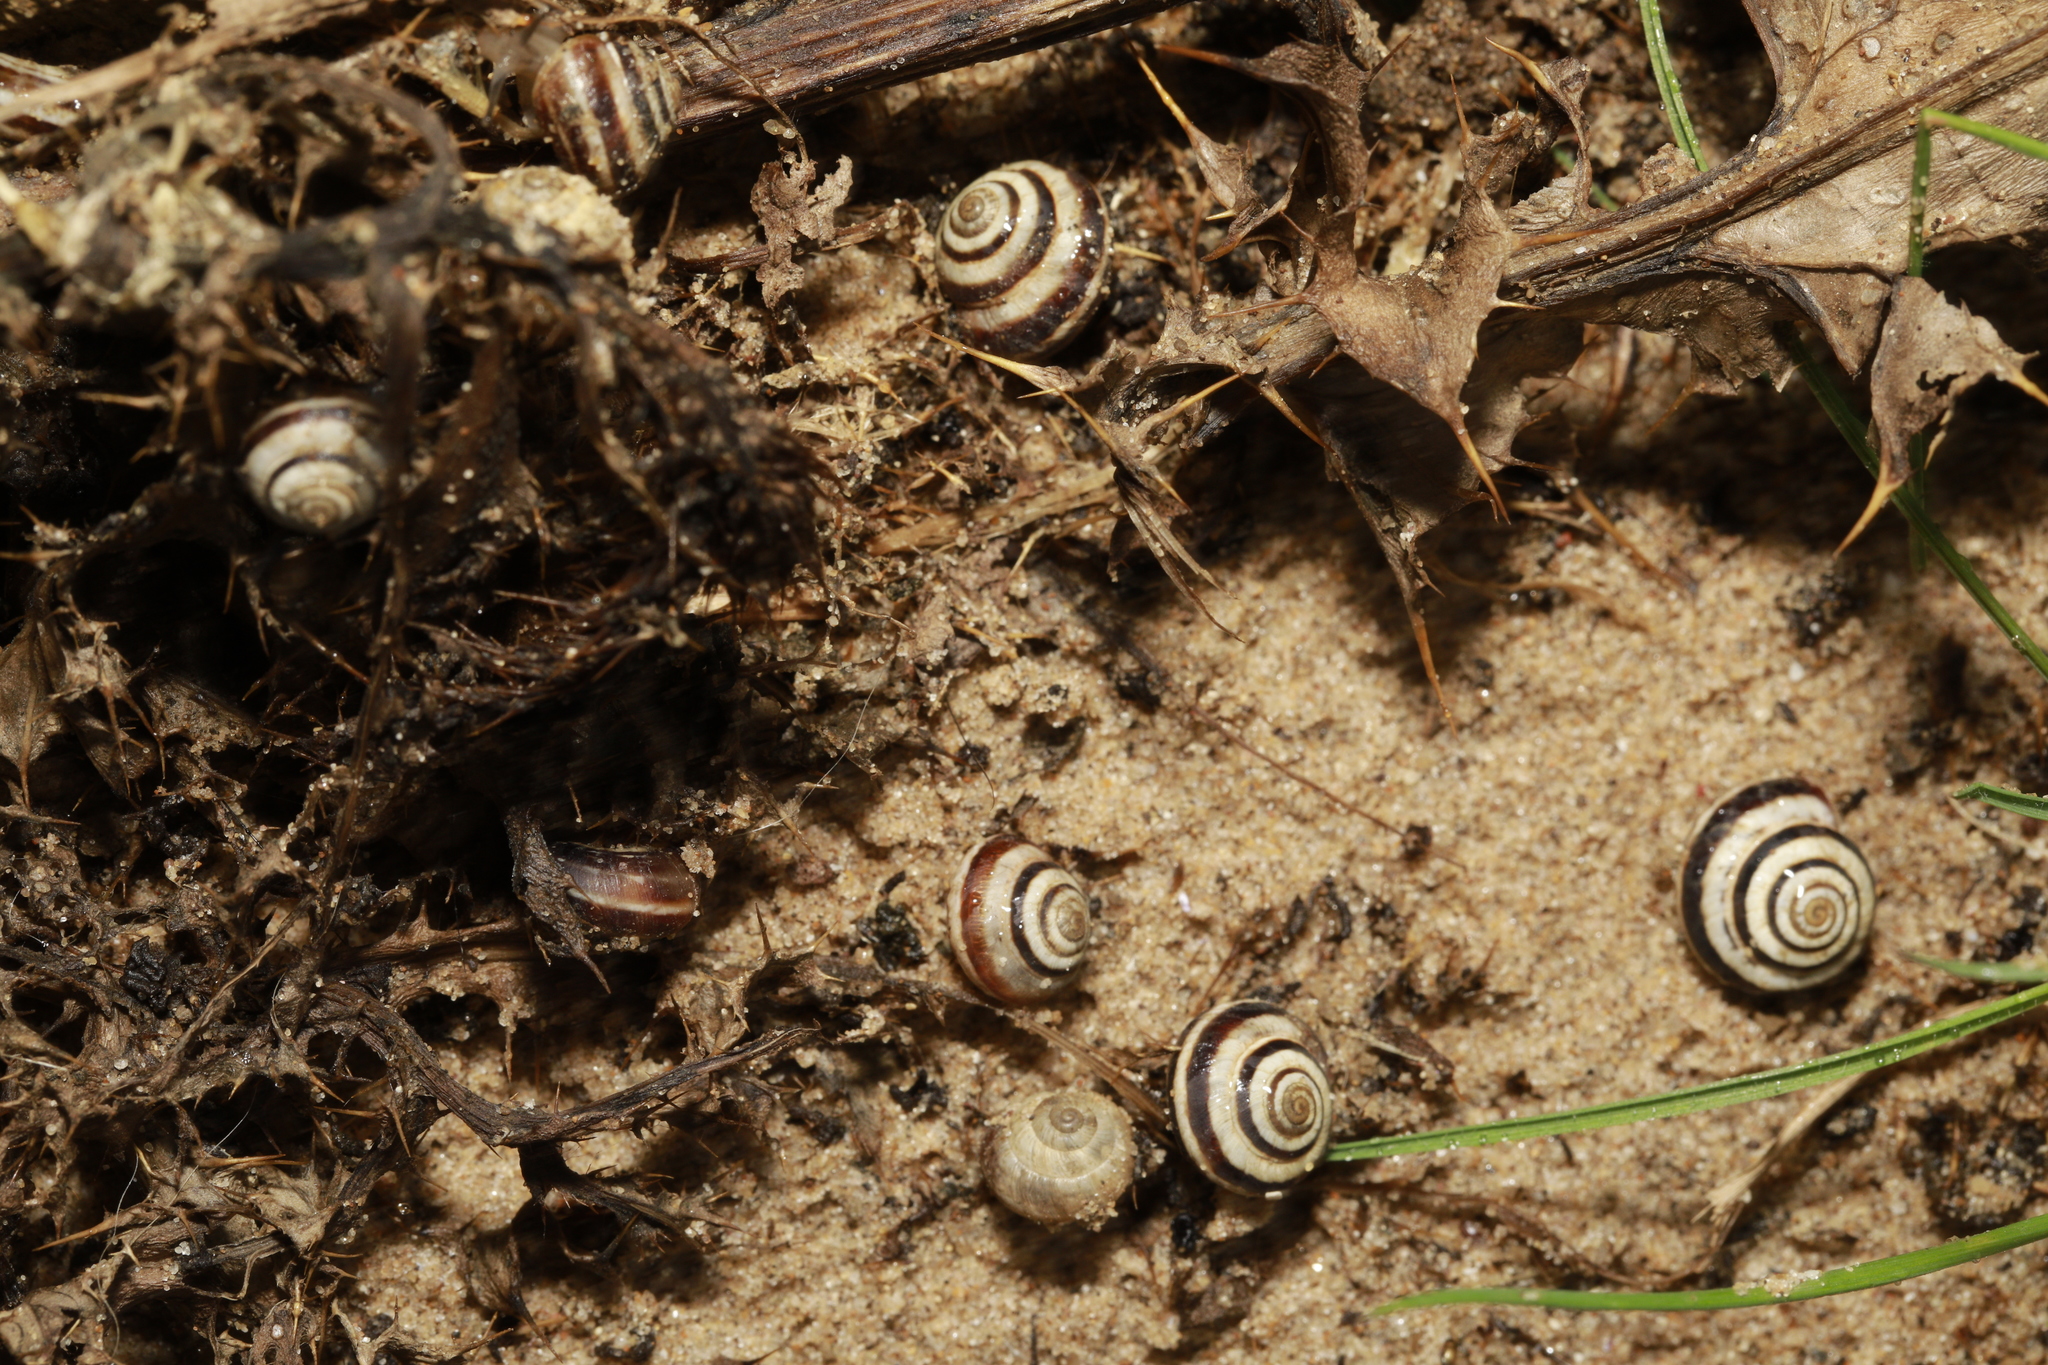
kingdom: Animalia
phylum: Mollusca
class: Gastropoda
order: Stylommatophora
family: Geomitridae
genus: Cernuella
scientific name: Cernuella virgata
